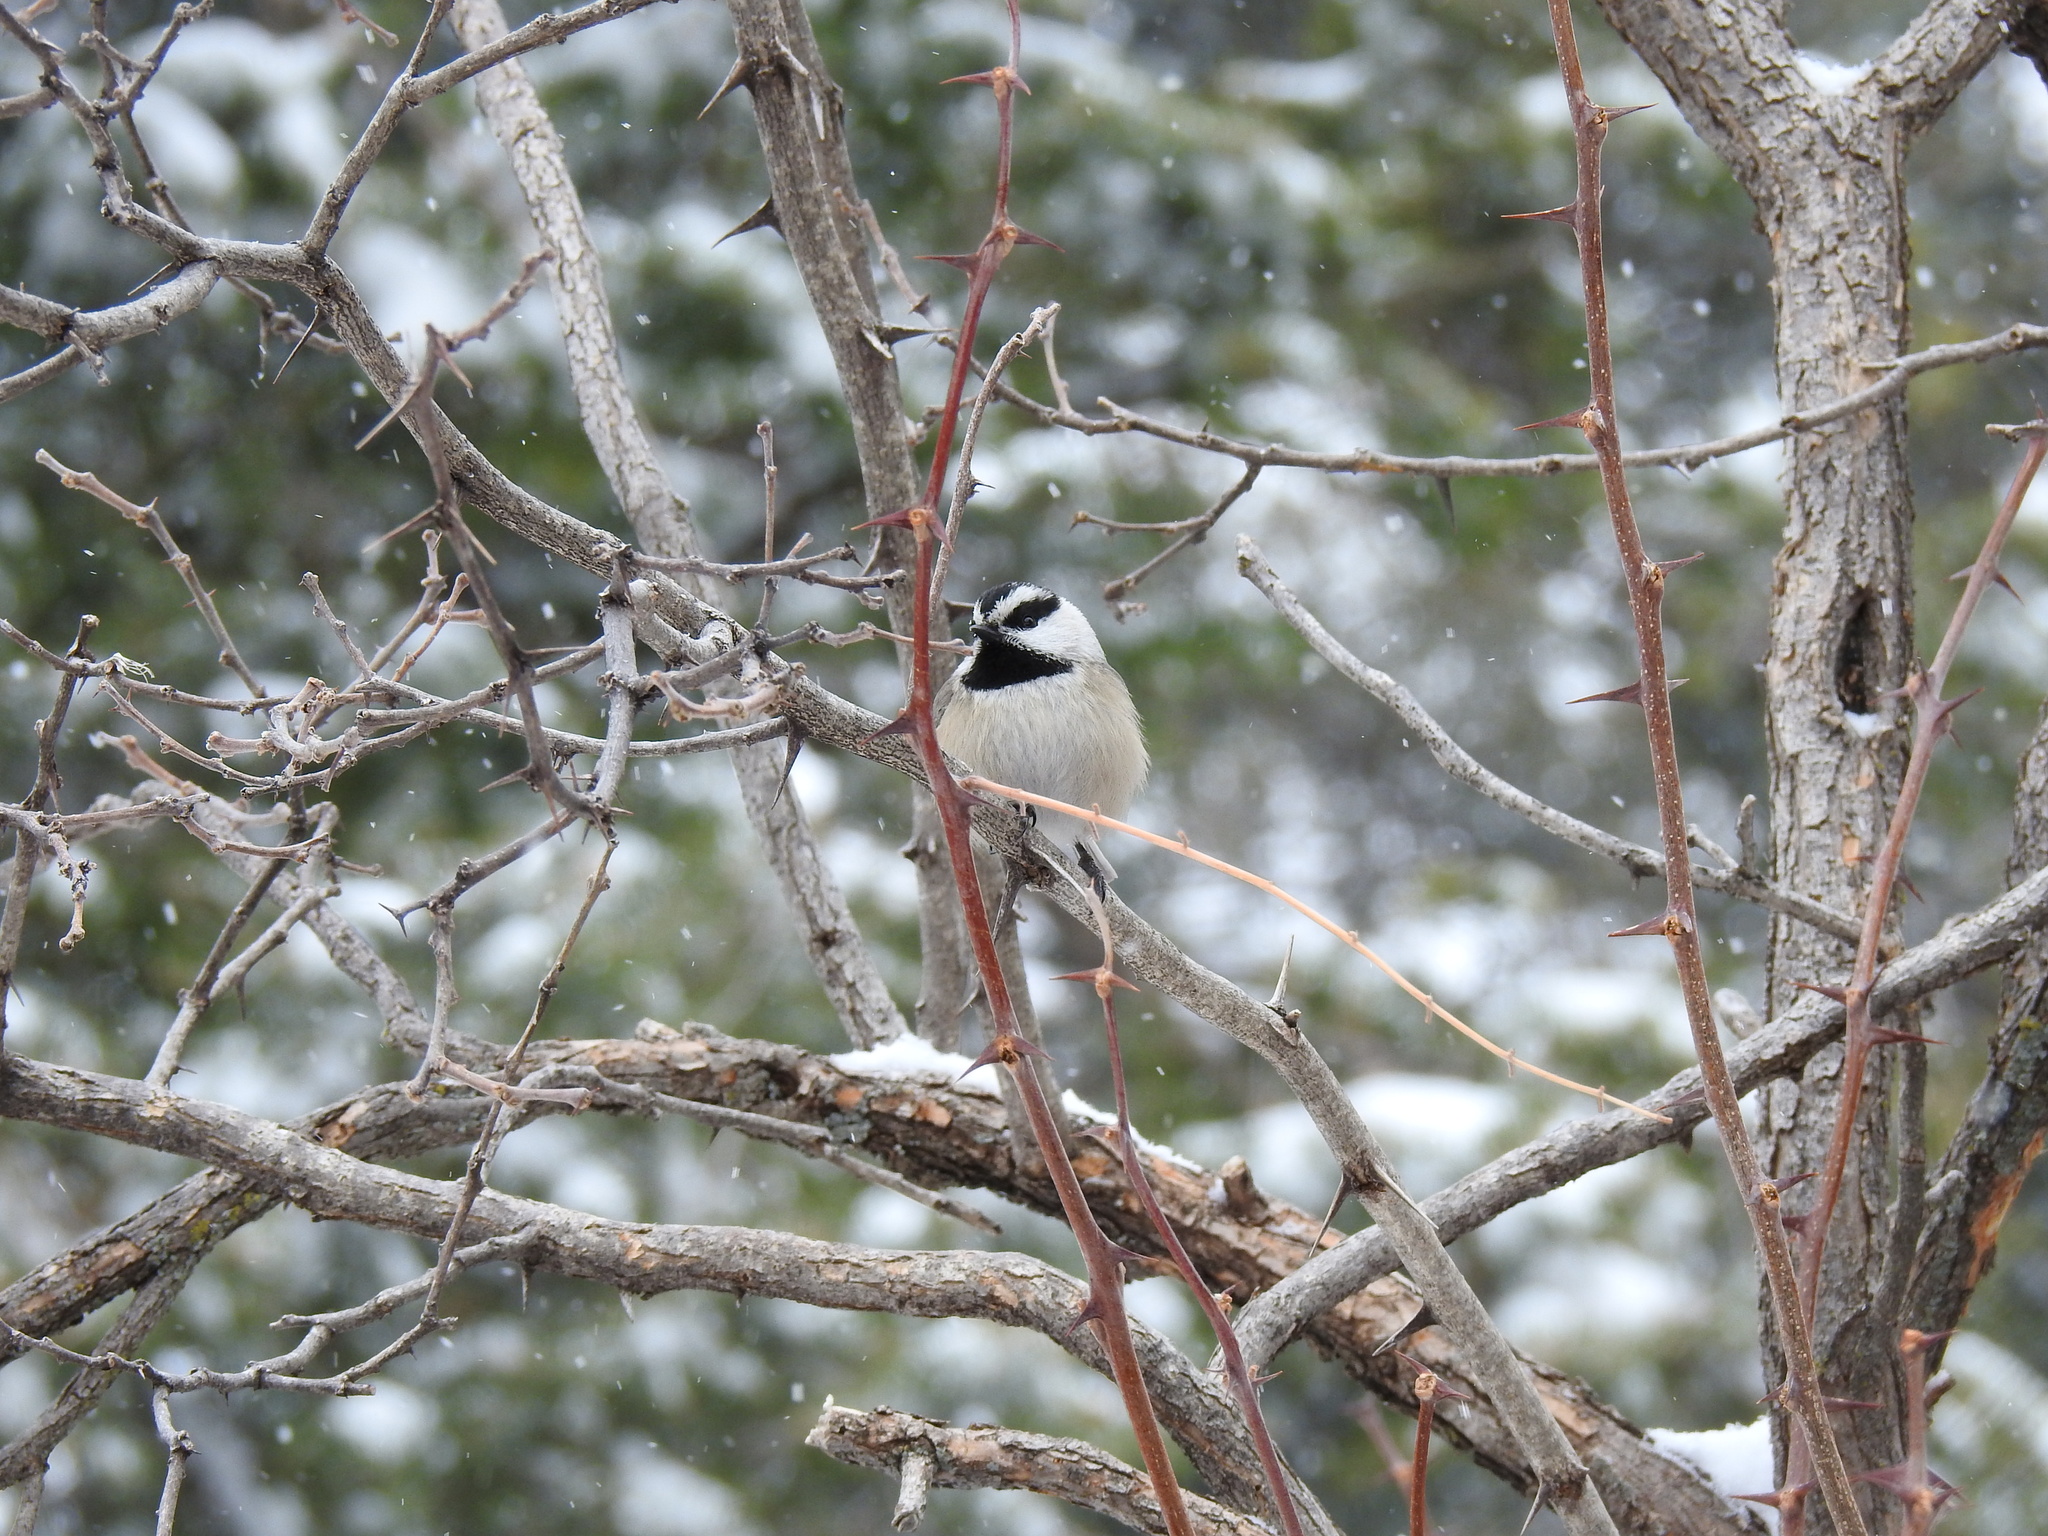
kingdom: Animalia
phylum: Chordata
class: Aves
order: Passeriformes
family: Paridae
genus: Poecile
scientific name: Poecile gambeli
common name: Mountain chickadee
